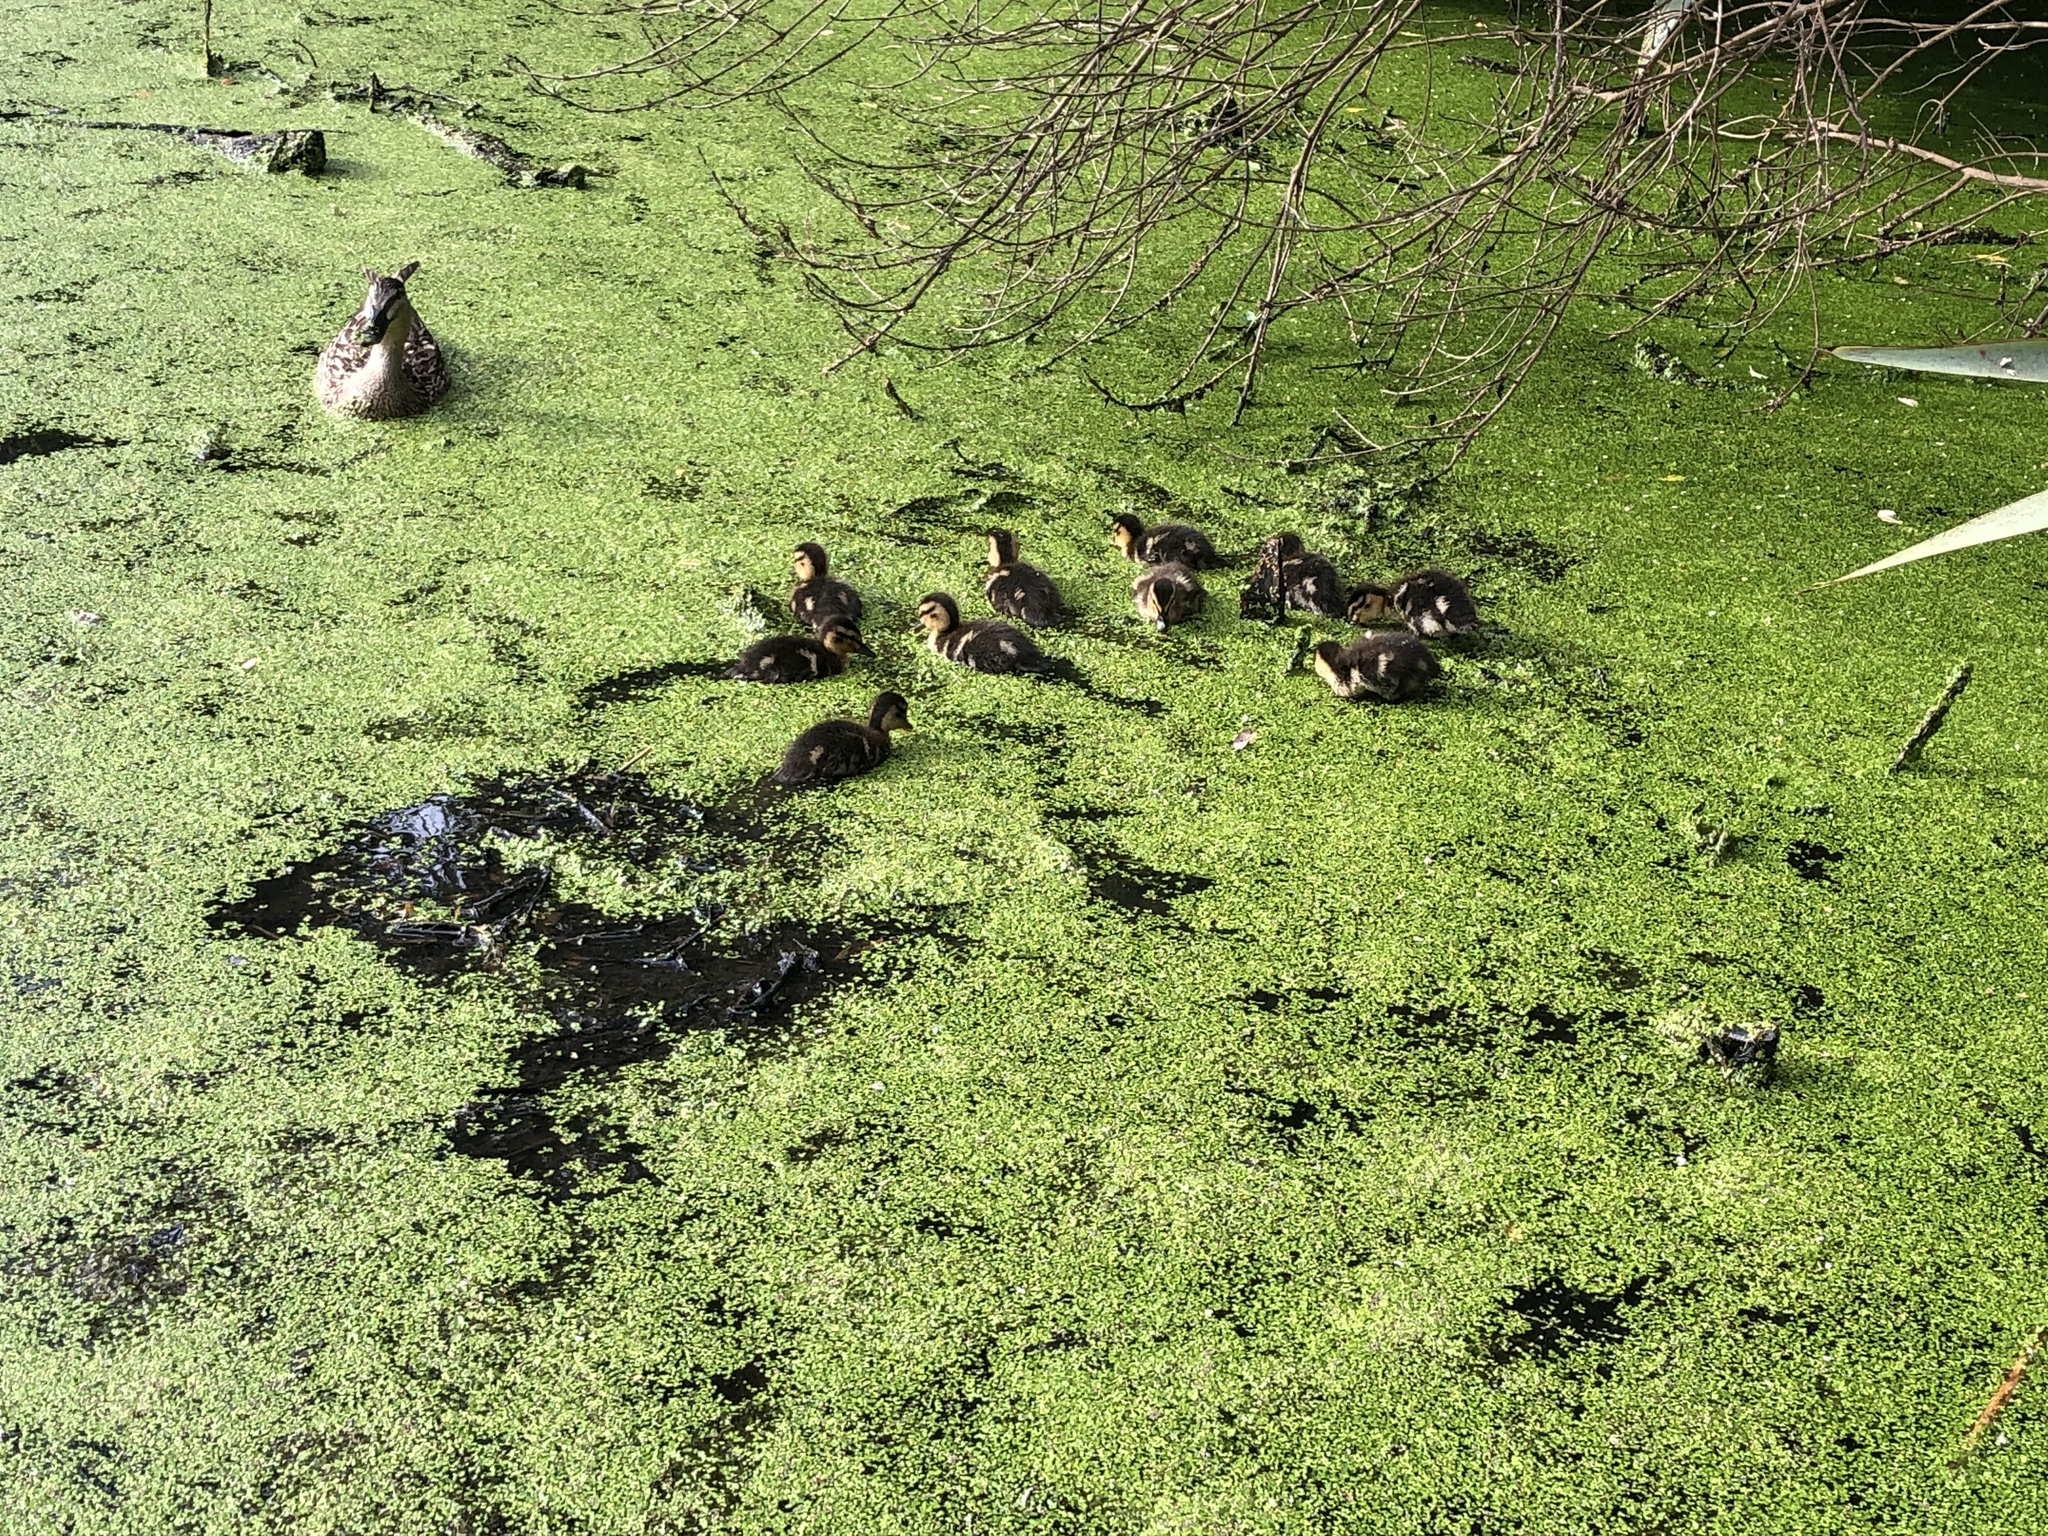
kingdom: Animalia
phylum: Chordata
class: Aves
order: Anseriformes
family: Anatidae
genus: Anas
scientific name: Anas
